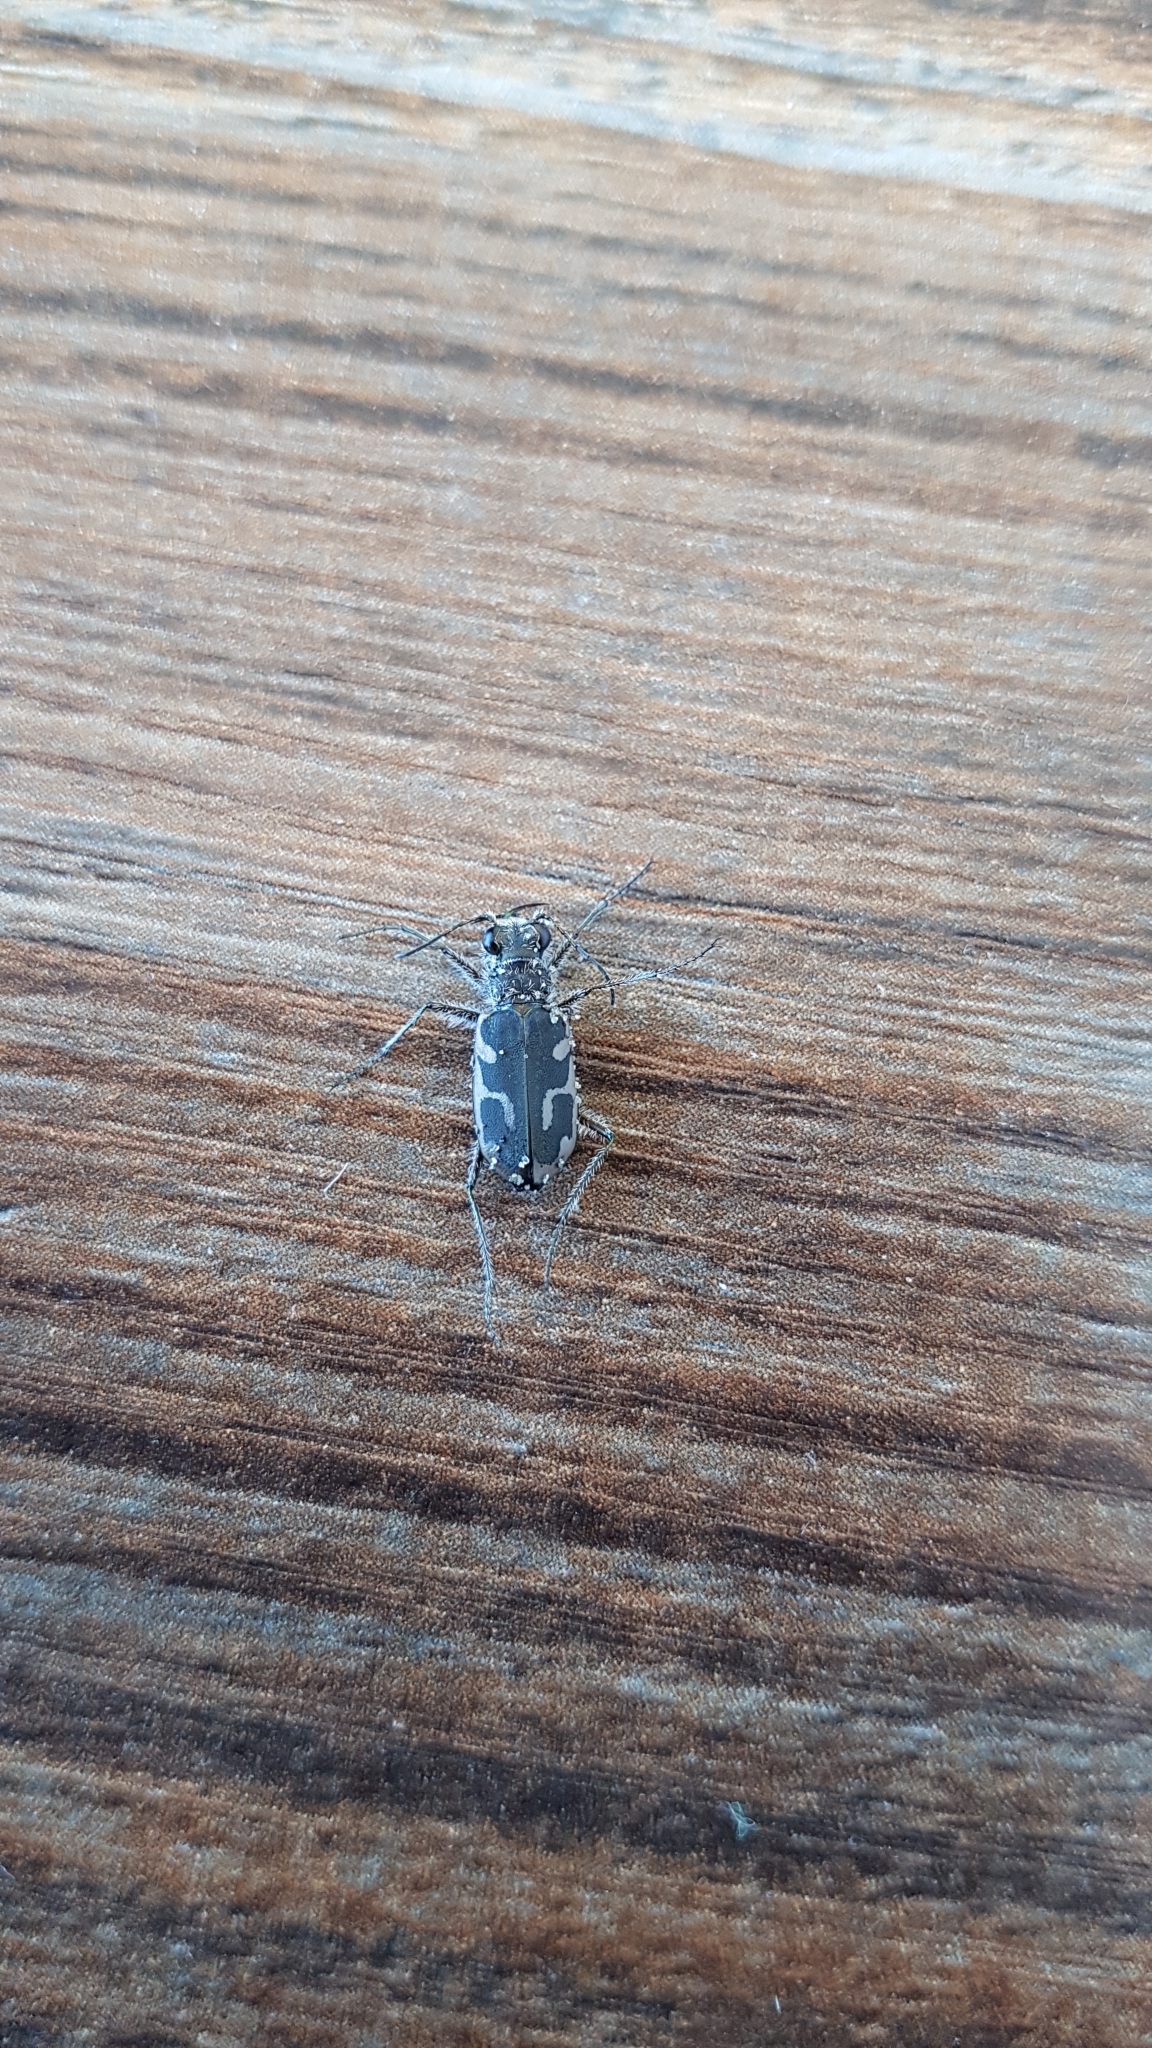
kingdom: Animalia
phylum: Arthropoda
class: Insecta
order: Coleoptera
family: Carabidae
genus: Zecicindela
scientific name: Zecicindela feredayi
